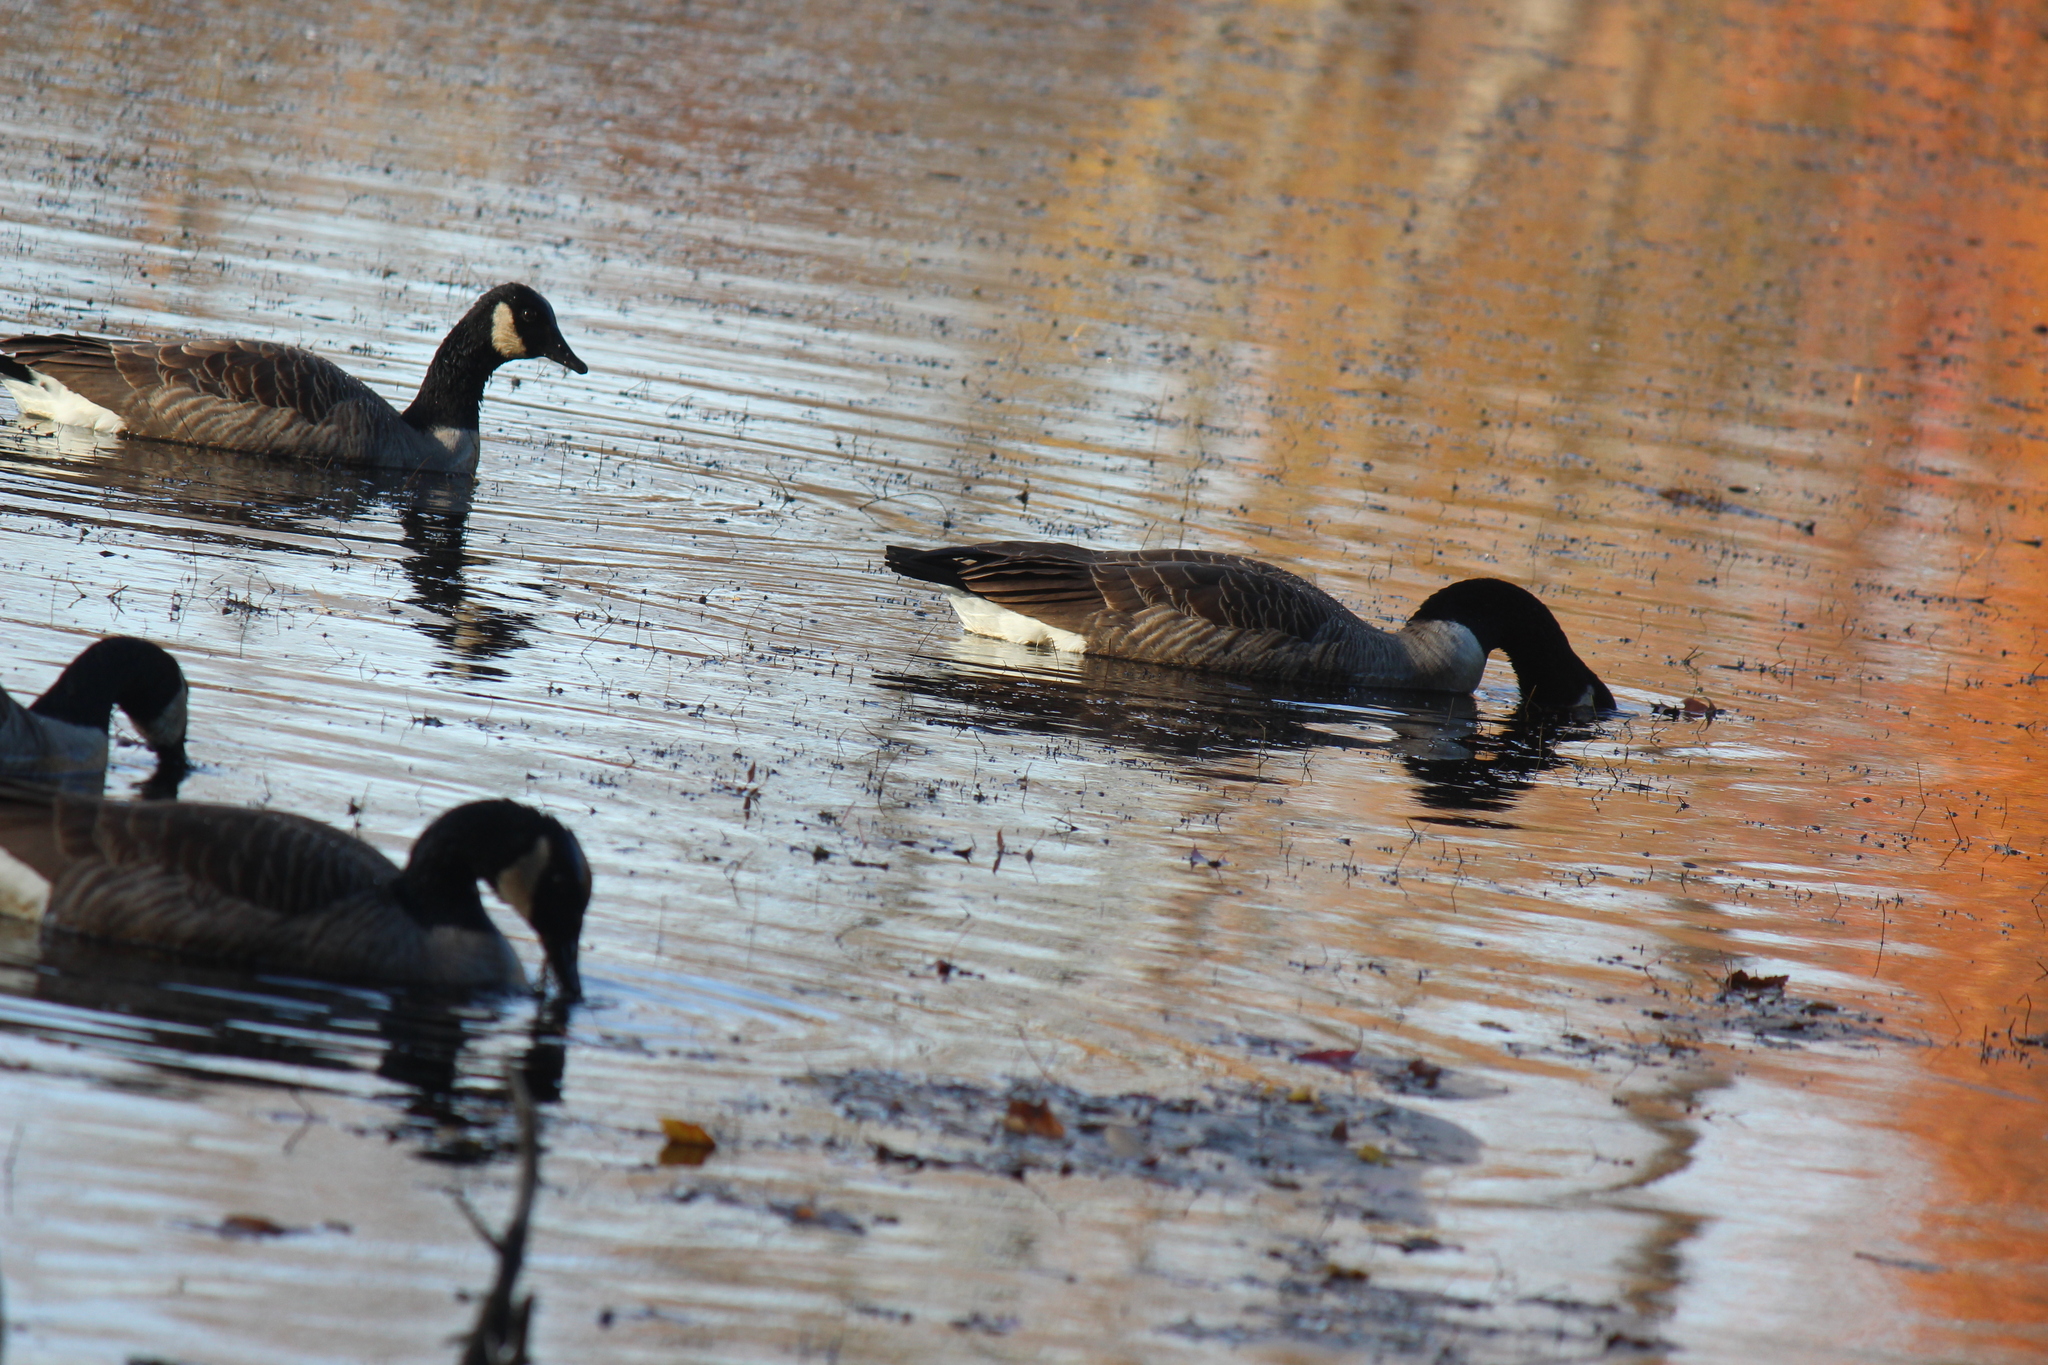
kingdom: Animalia
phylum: Chordata
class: Aves
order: Anseriformes
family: Anatidae
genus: Branta
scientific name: Branta canadensis
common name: Canada goose
